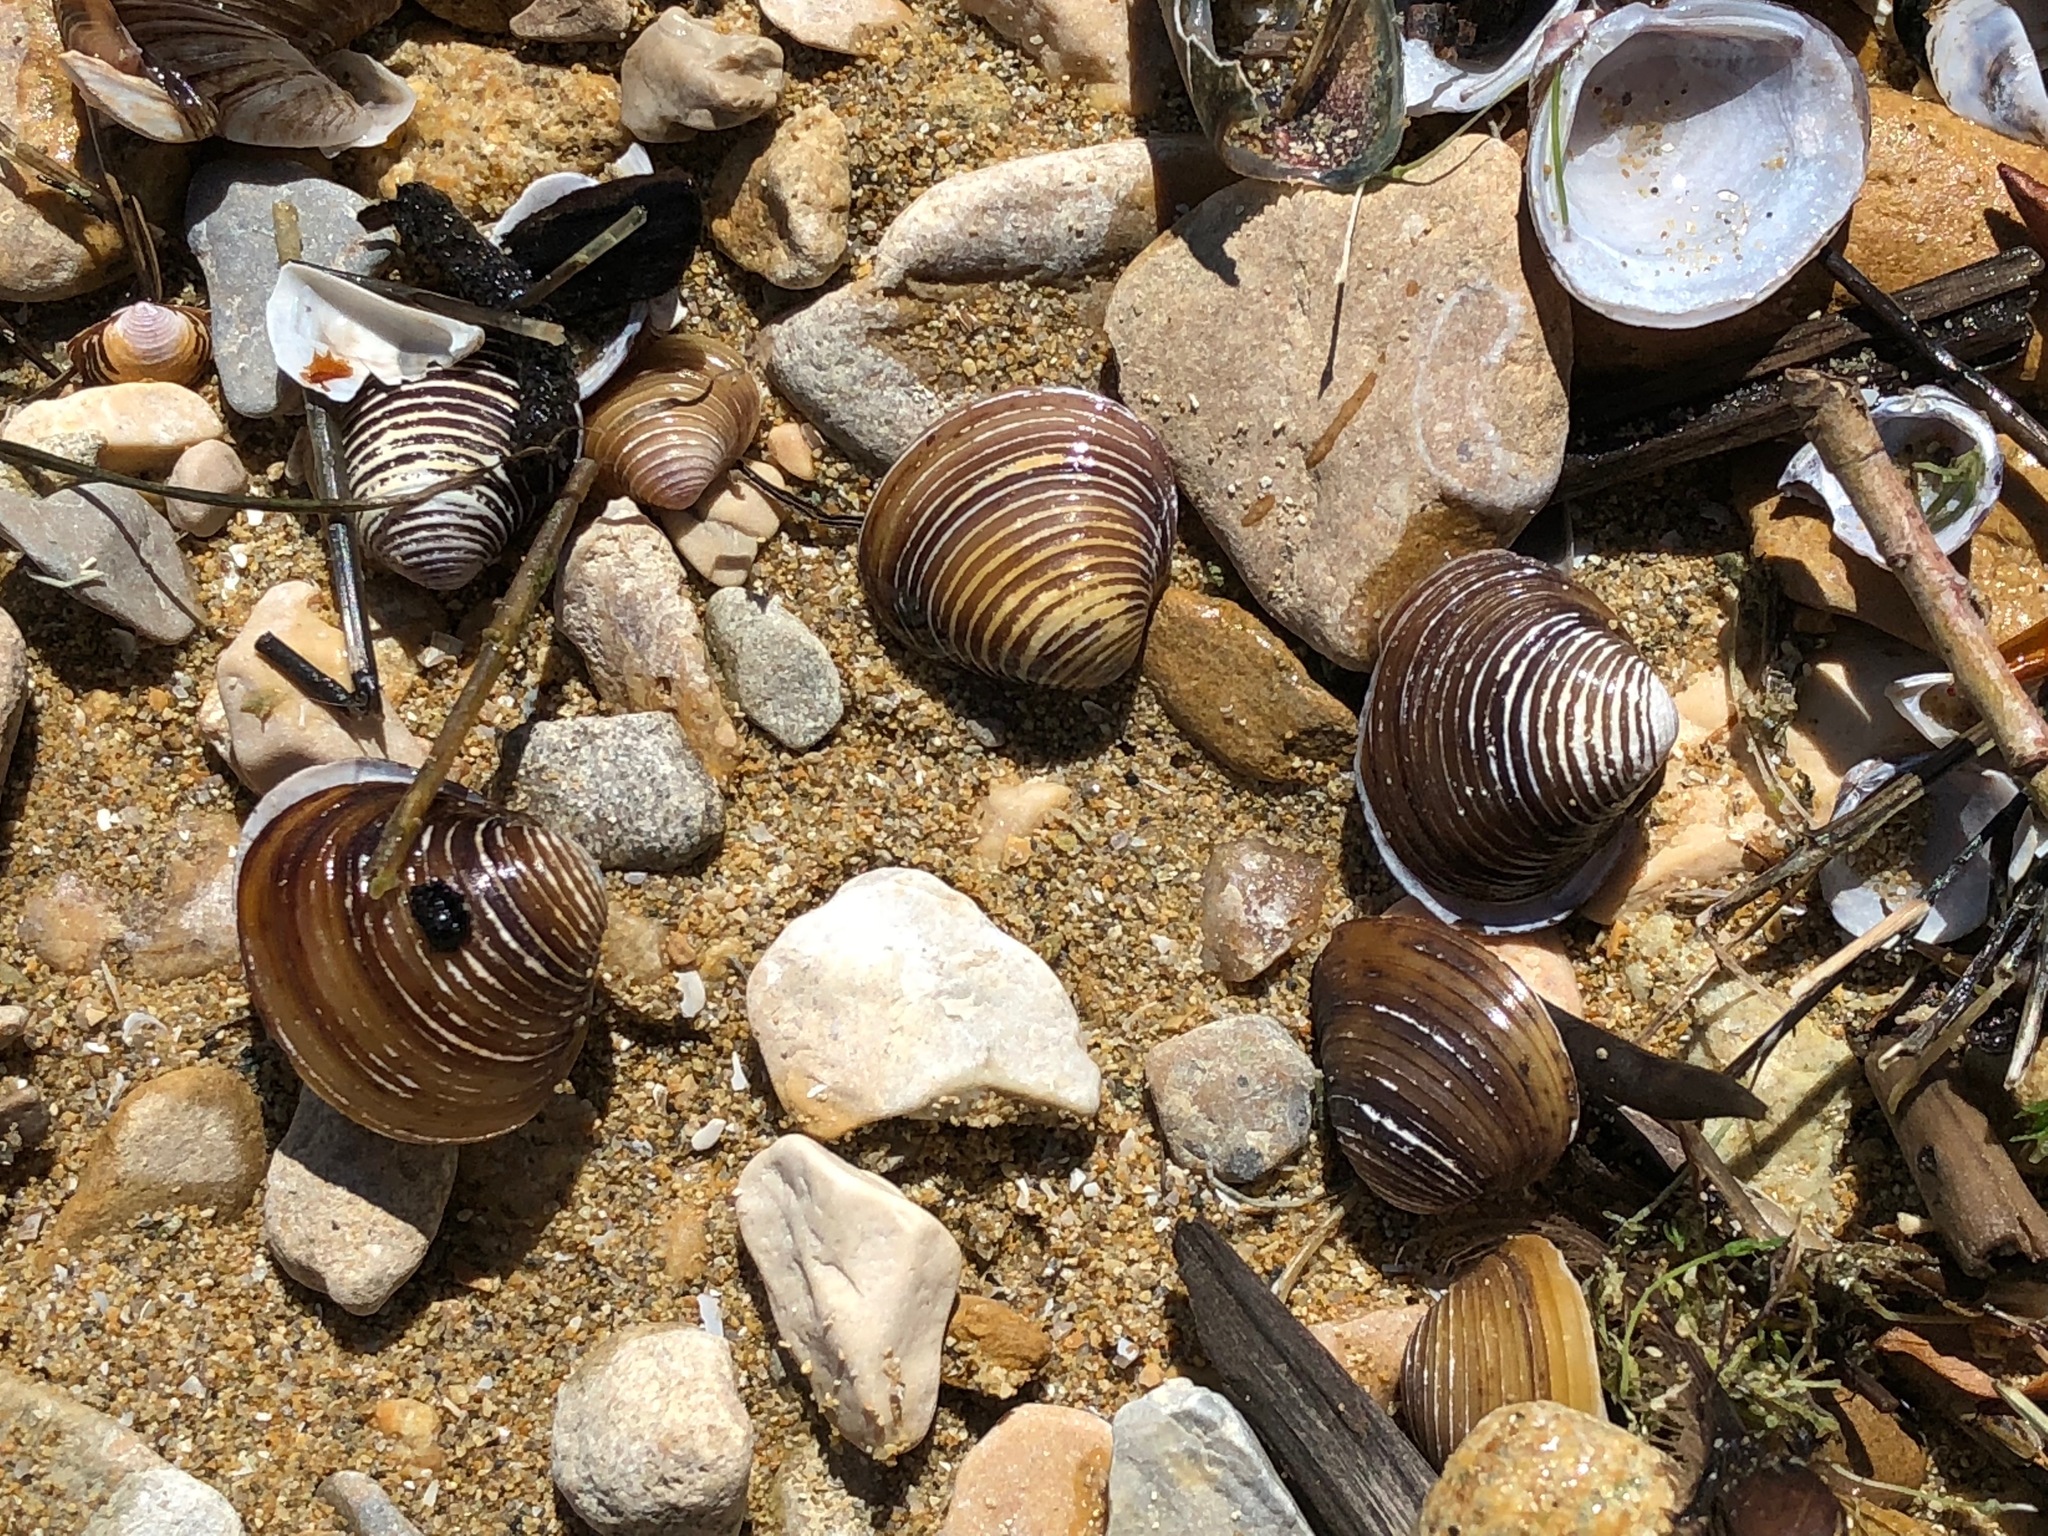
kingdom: Animalia
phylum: Mollusca
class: Bivalvia
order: Venerida
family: Cyrenidae
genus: Corbicula
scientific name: Corbicula fluminea
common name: Asian clam
